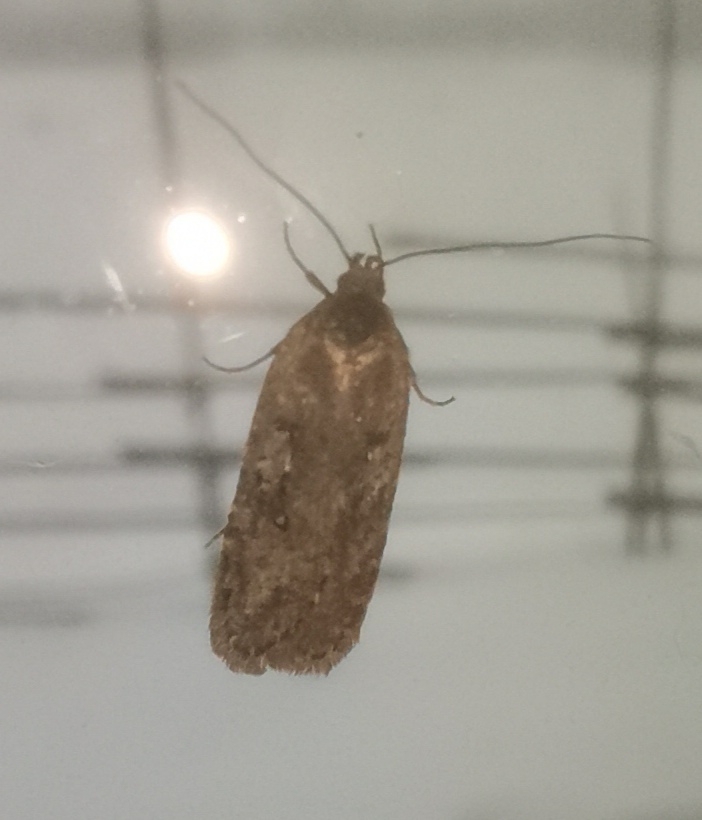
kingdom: Animalia
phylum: Arthropoda
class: Insecta
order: Lepidoptera
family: Depressariidae
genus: Agonopterix
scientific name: Agonopterix heracliana
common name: Common flat-body
